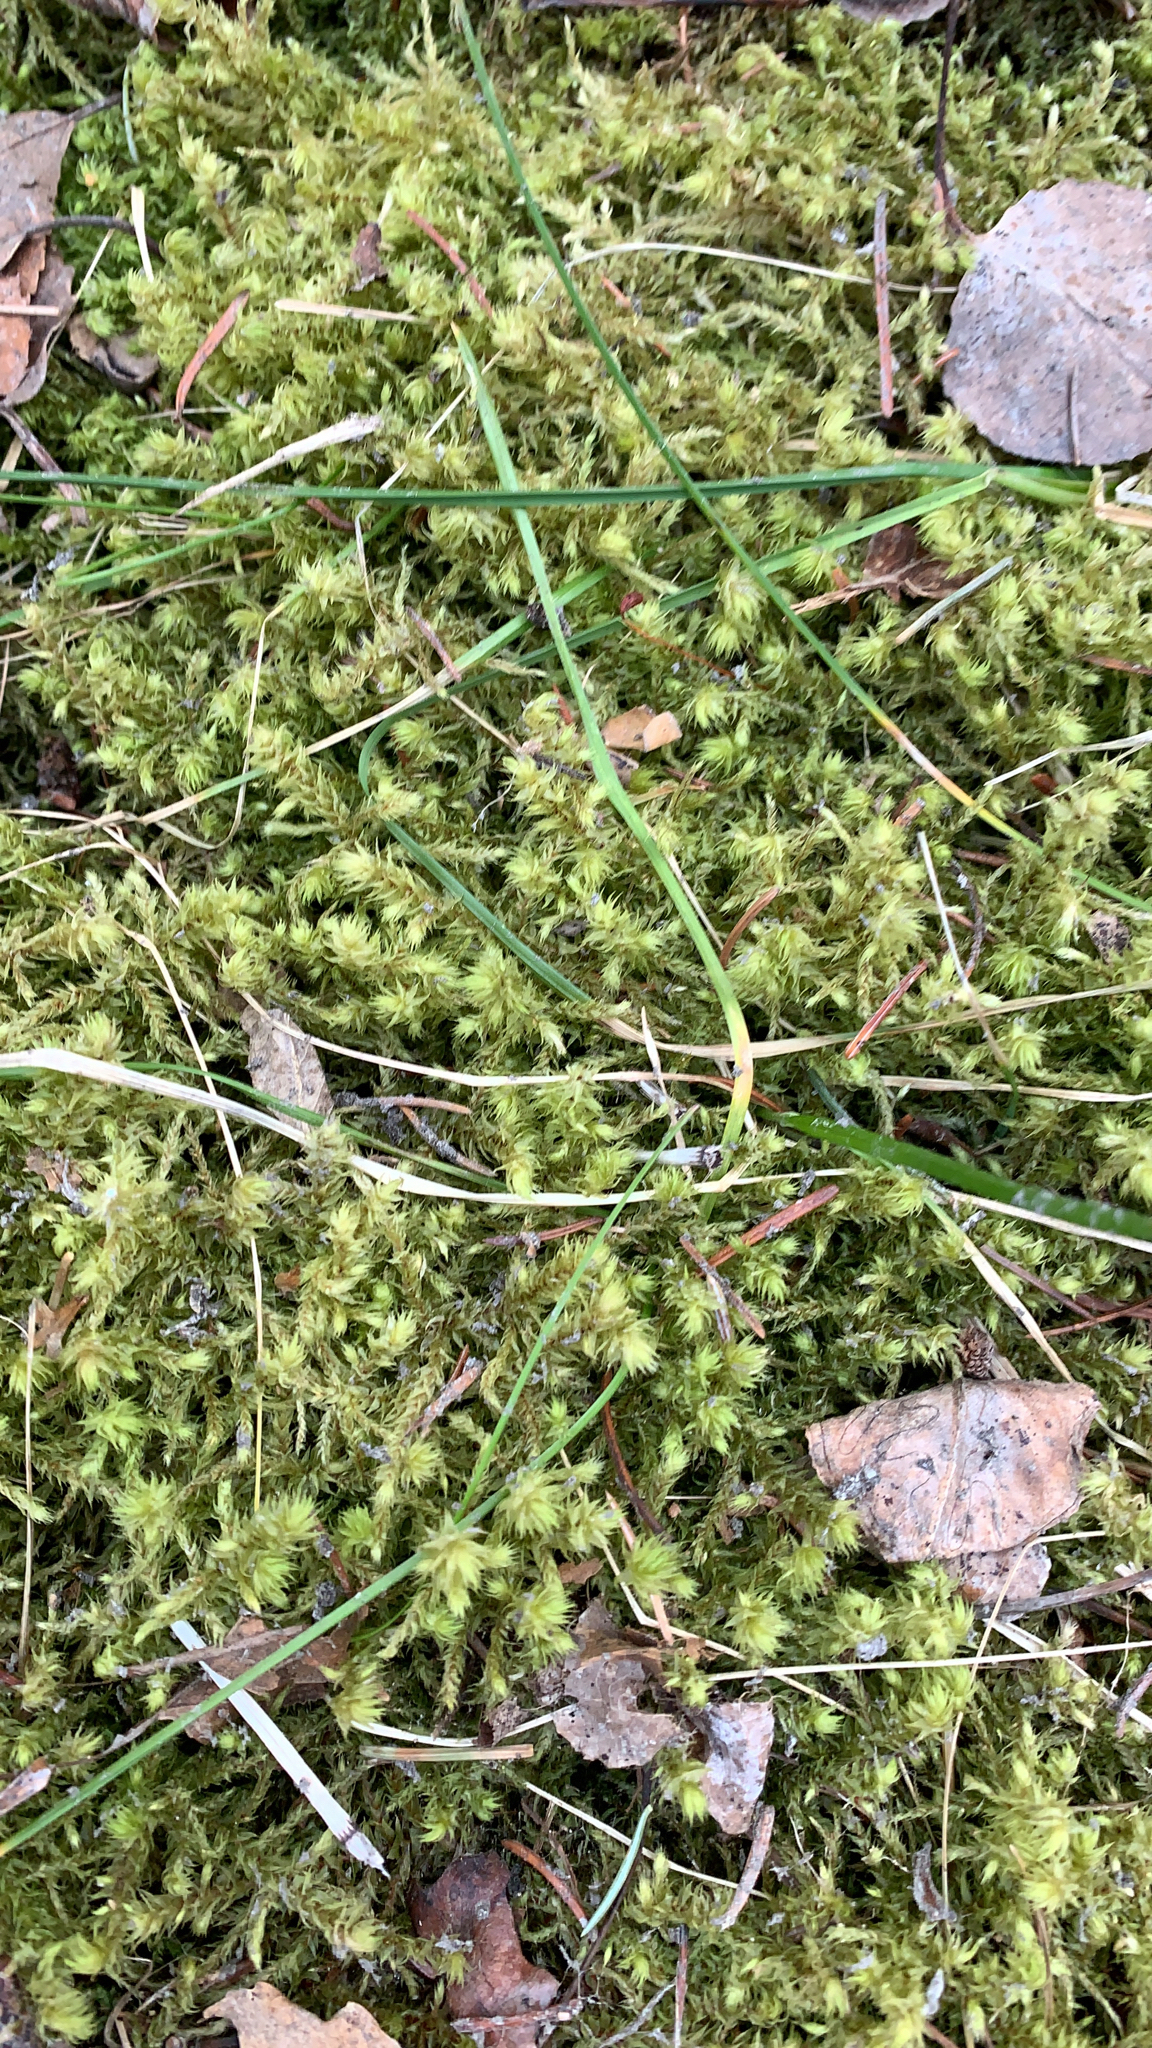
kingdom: Plantae
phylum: Bryophyta
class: Bryopsida
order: Hypnales
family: Hylocomiaceae
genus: Hylocomiadelphus
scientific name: Hylocomiadelphus triquetrus
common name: Rough goose neck moss
